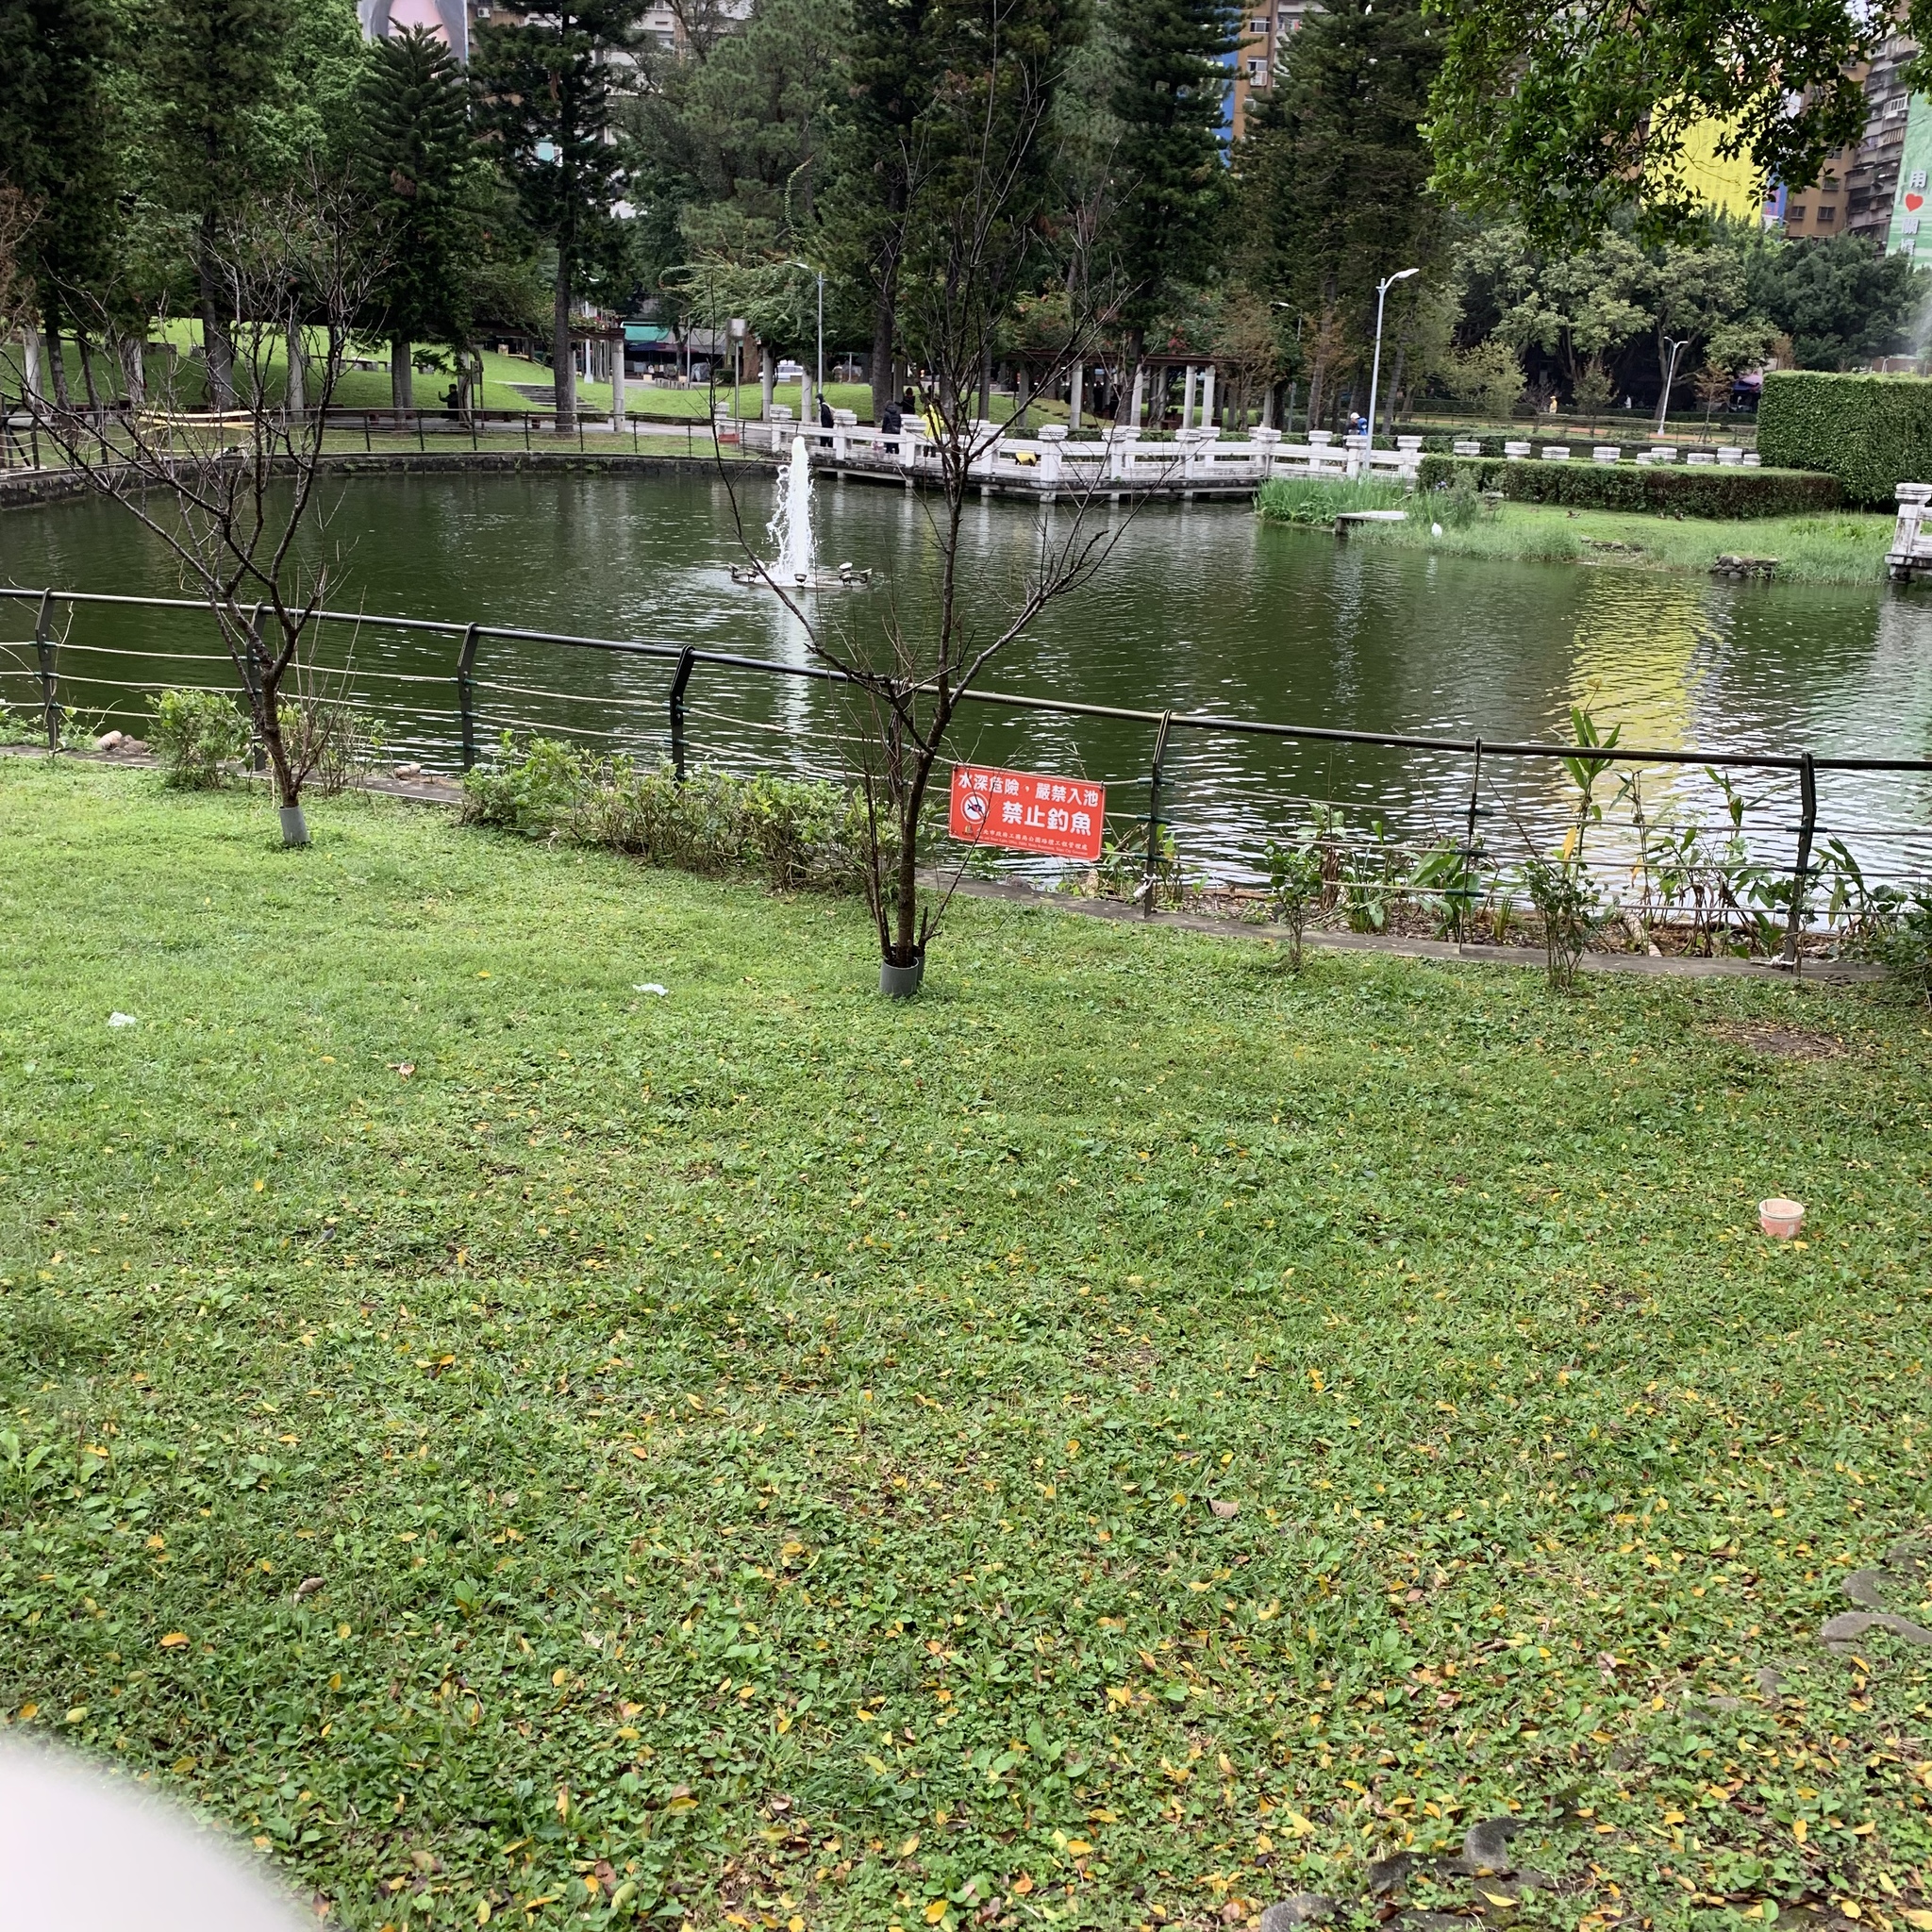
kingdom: Animalia
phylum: Chordata
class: Aves
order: Columbiformes
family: Columbidae
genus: Streptopelia
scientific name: Streptopelia orientalis
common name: Oriental turtle dove
